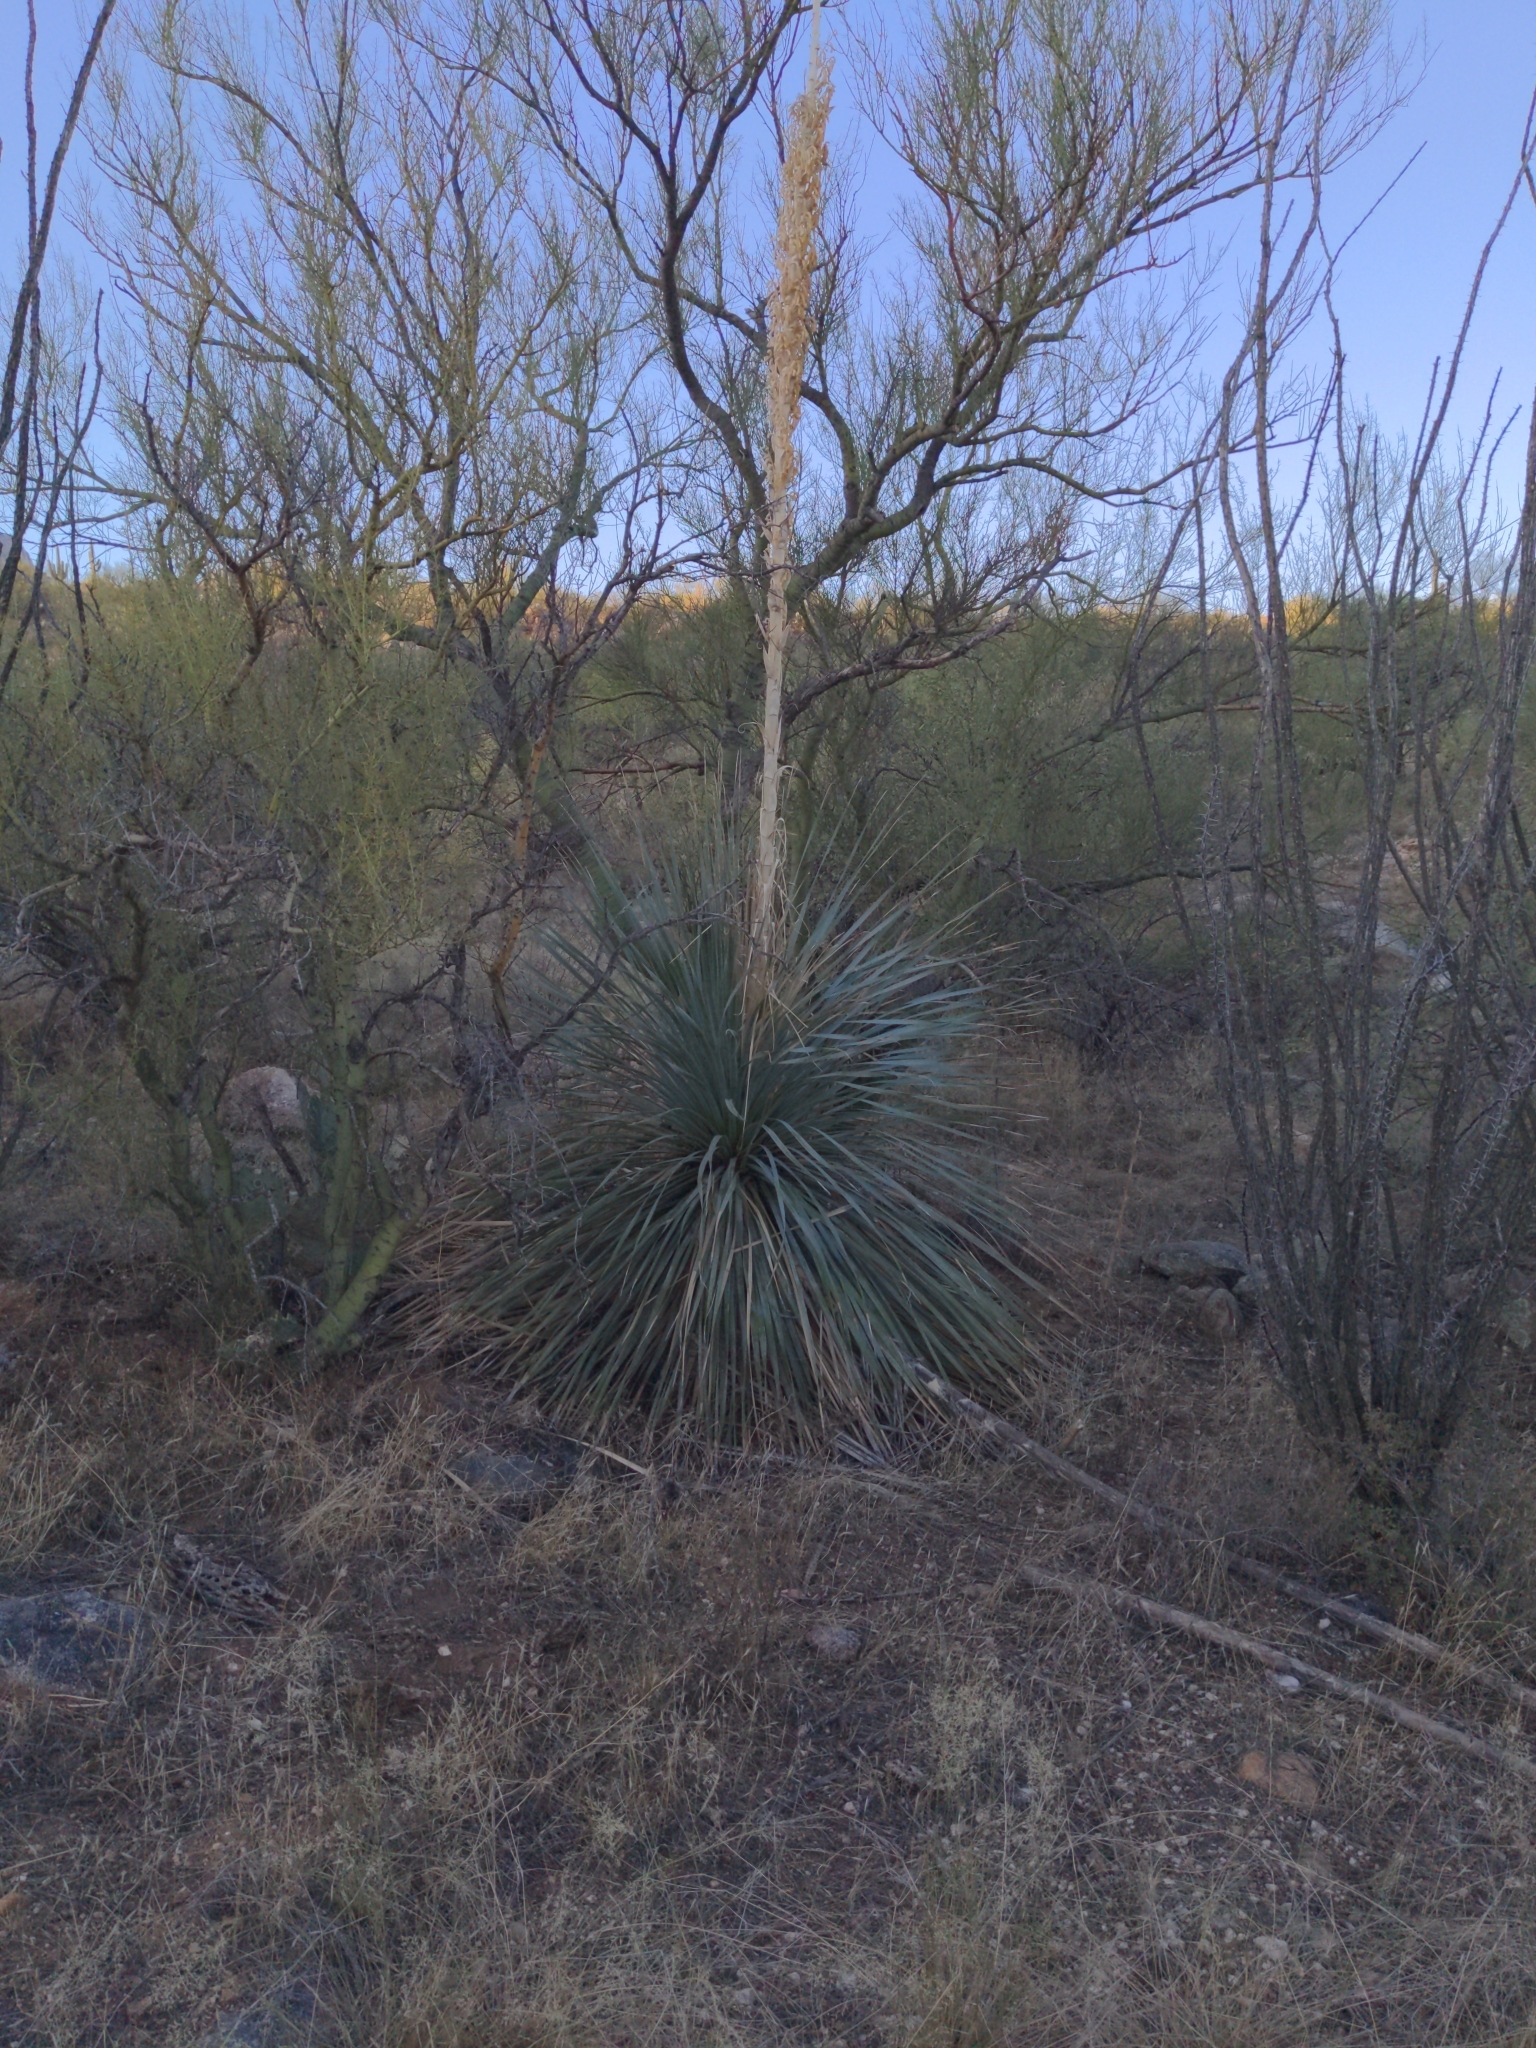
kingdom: Plantae
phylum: Tracheophyta
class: Liliopsida
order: Asparagales
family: Asparagaceae
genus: Dasylirion
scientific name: Dasylirion wheeleri
